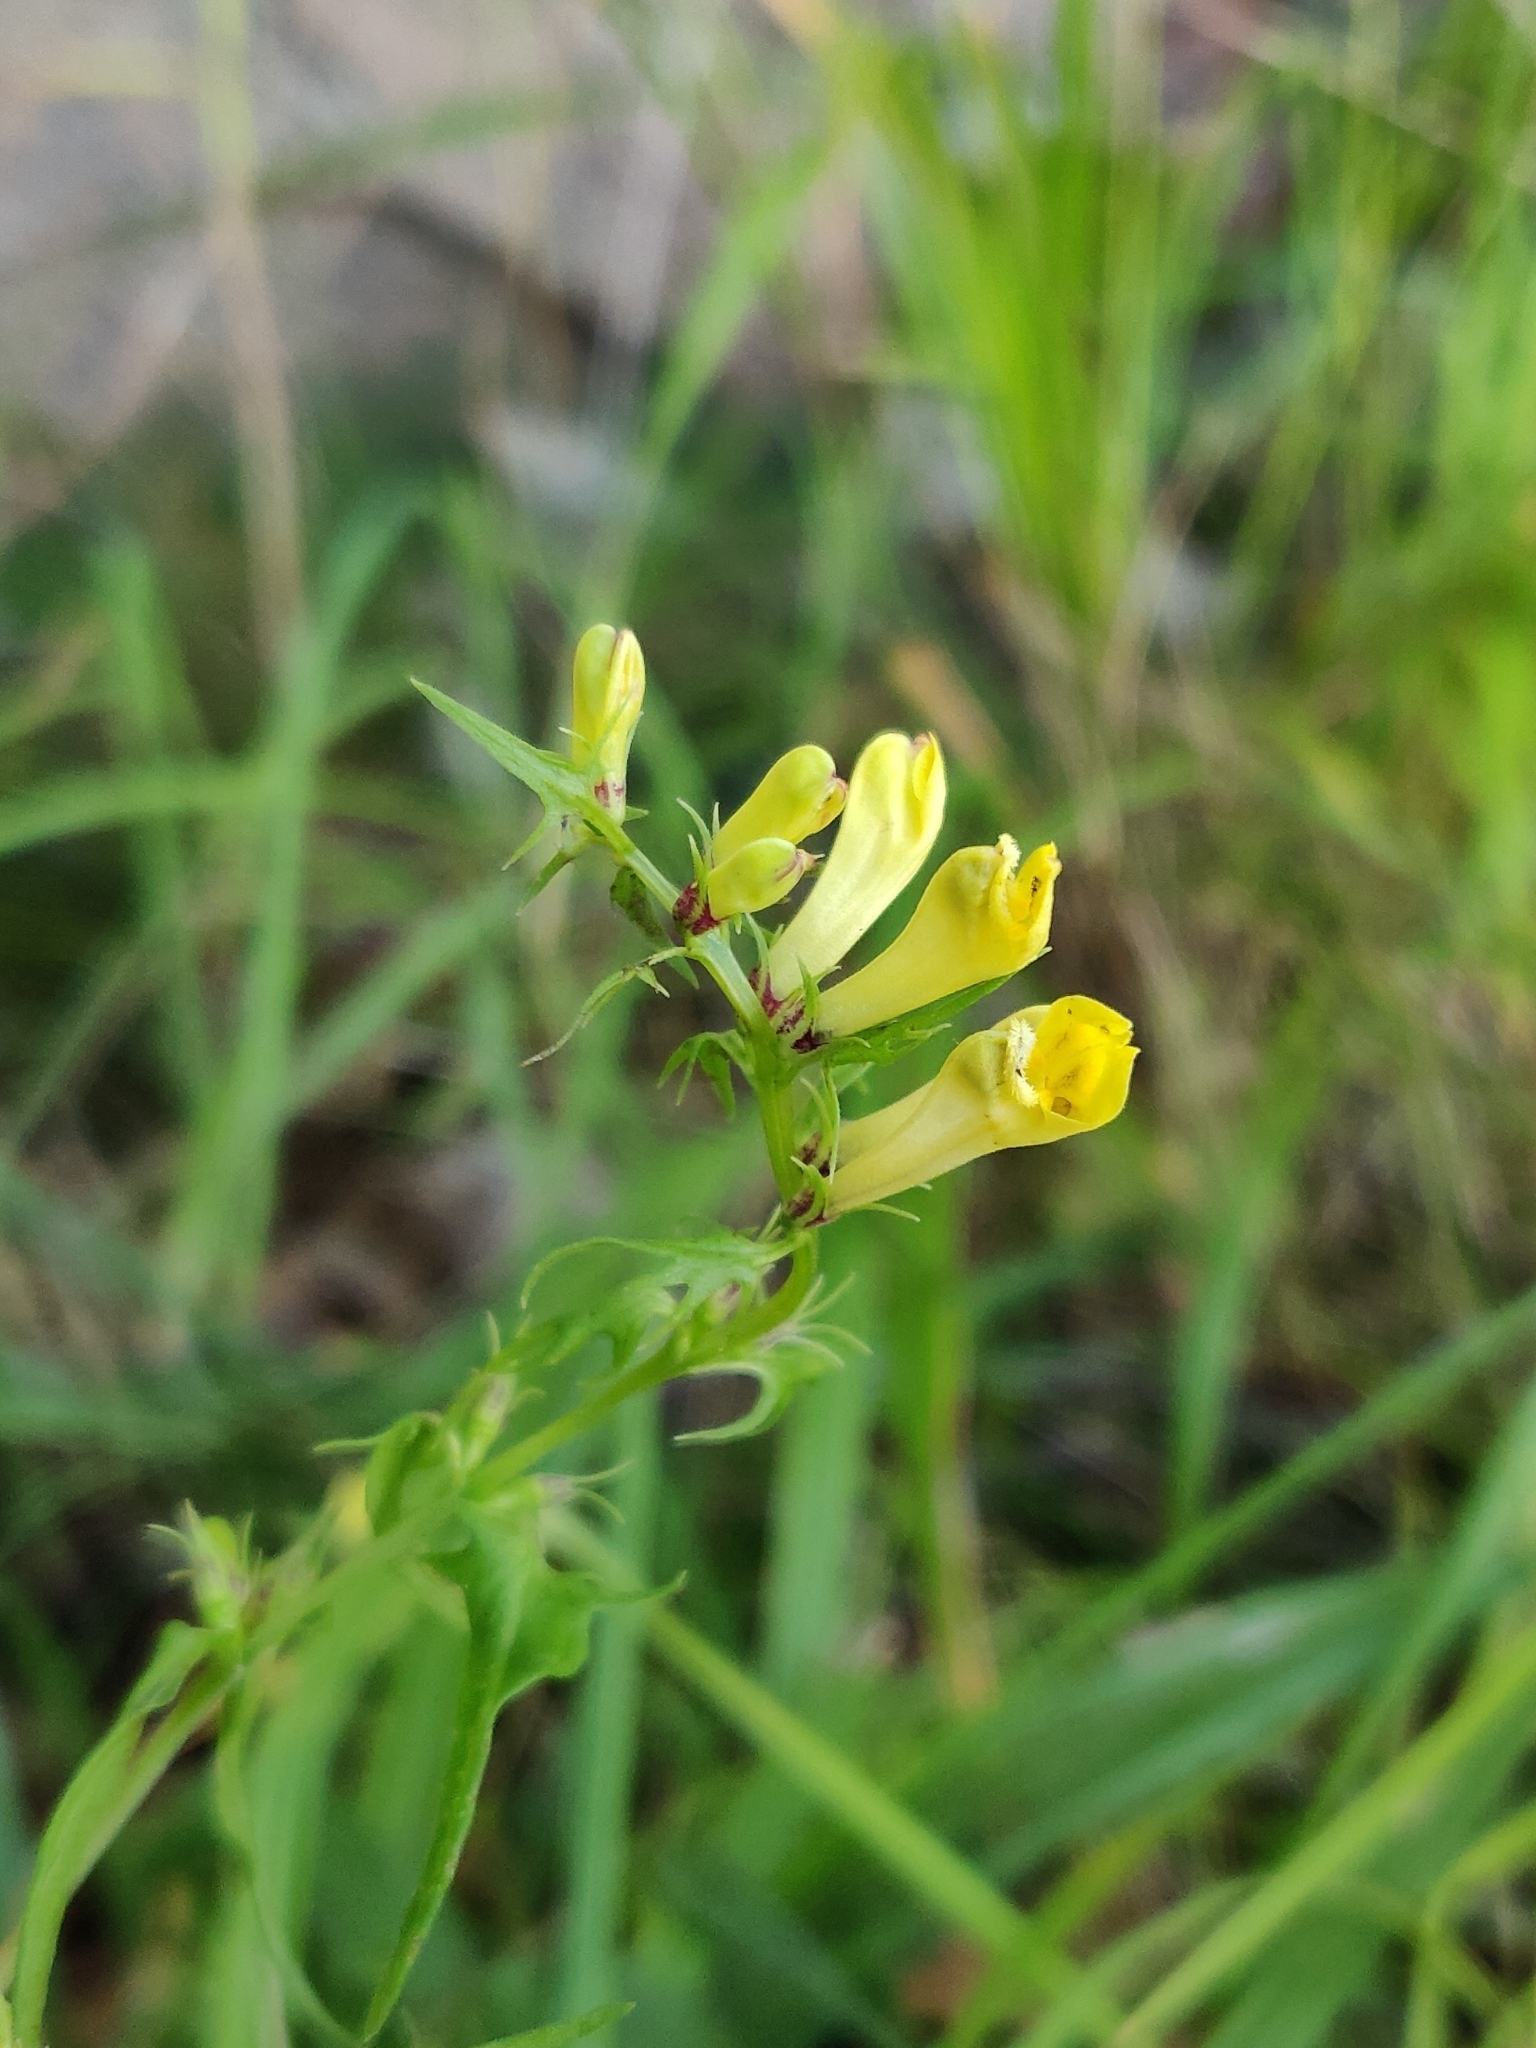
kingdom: Plantae
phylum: Tracheophyta
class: Magnoliopsida
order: Lamiales
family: Orobanchaceae
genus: Melampyrum
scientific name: Melampyrum pratense
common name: Common cow-wheat
